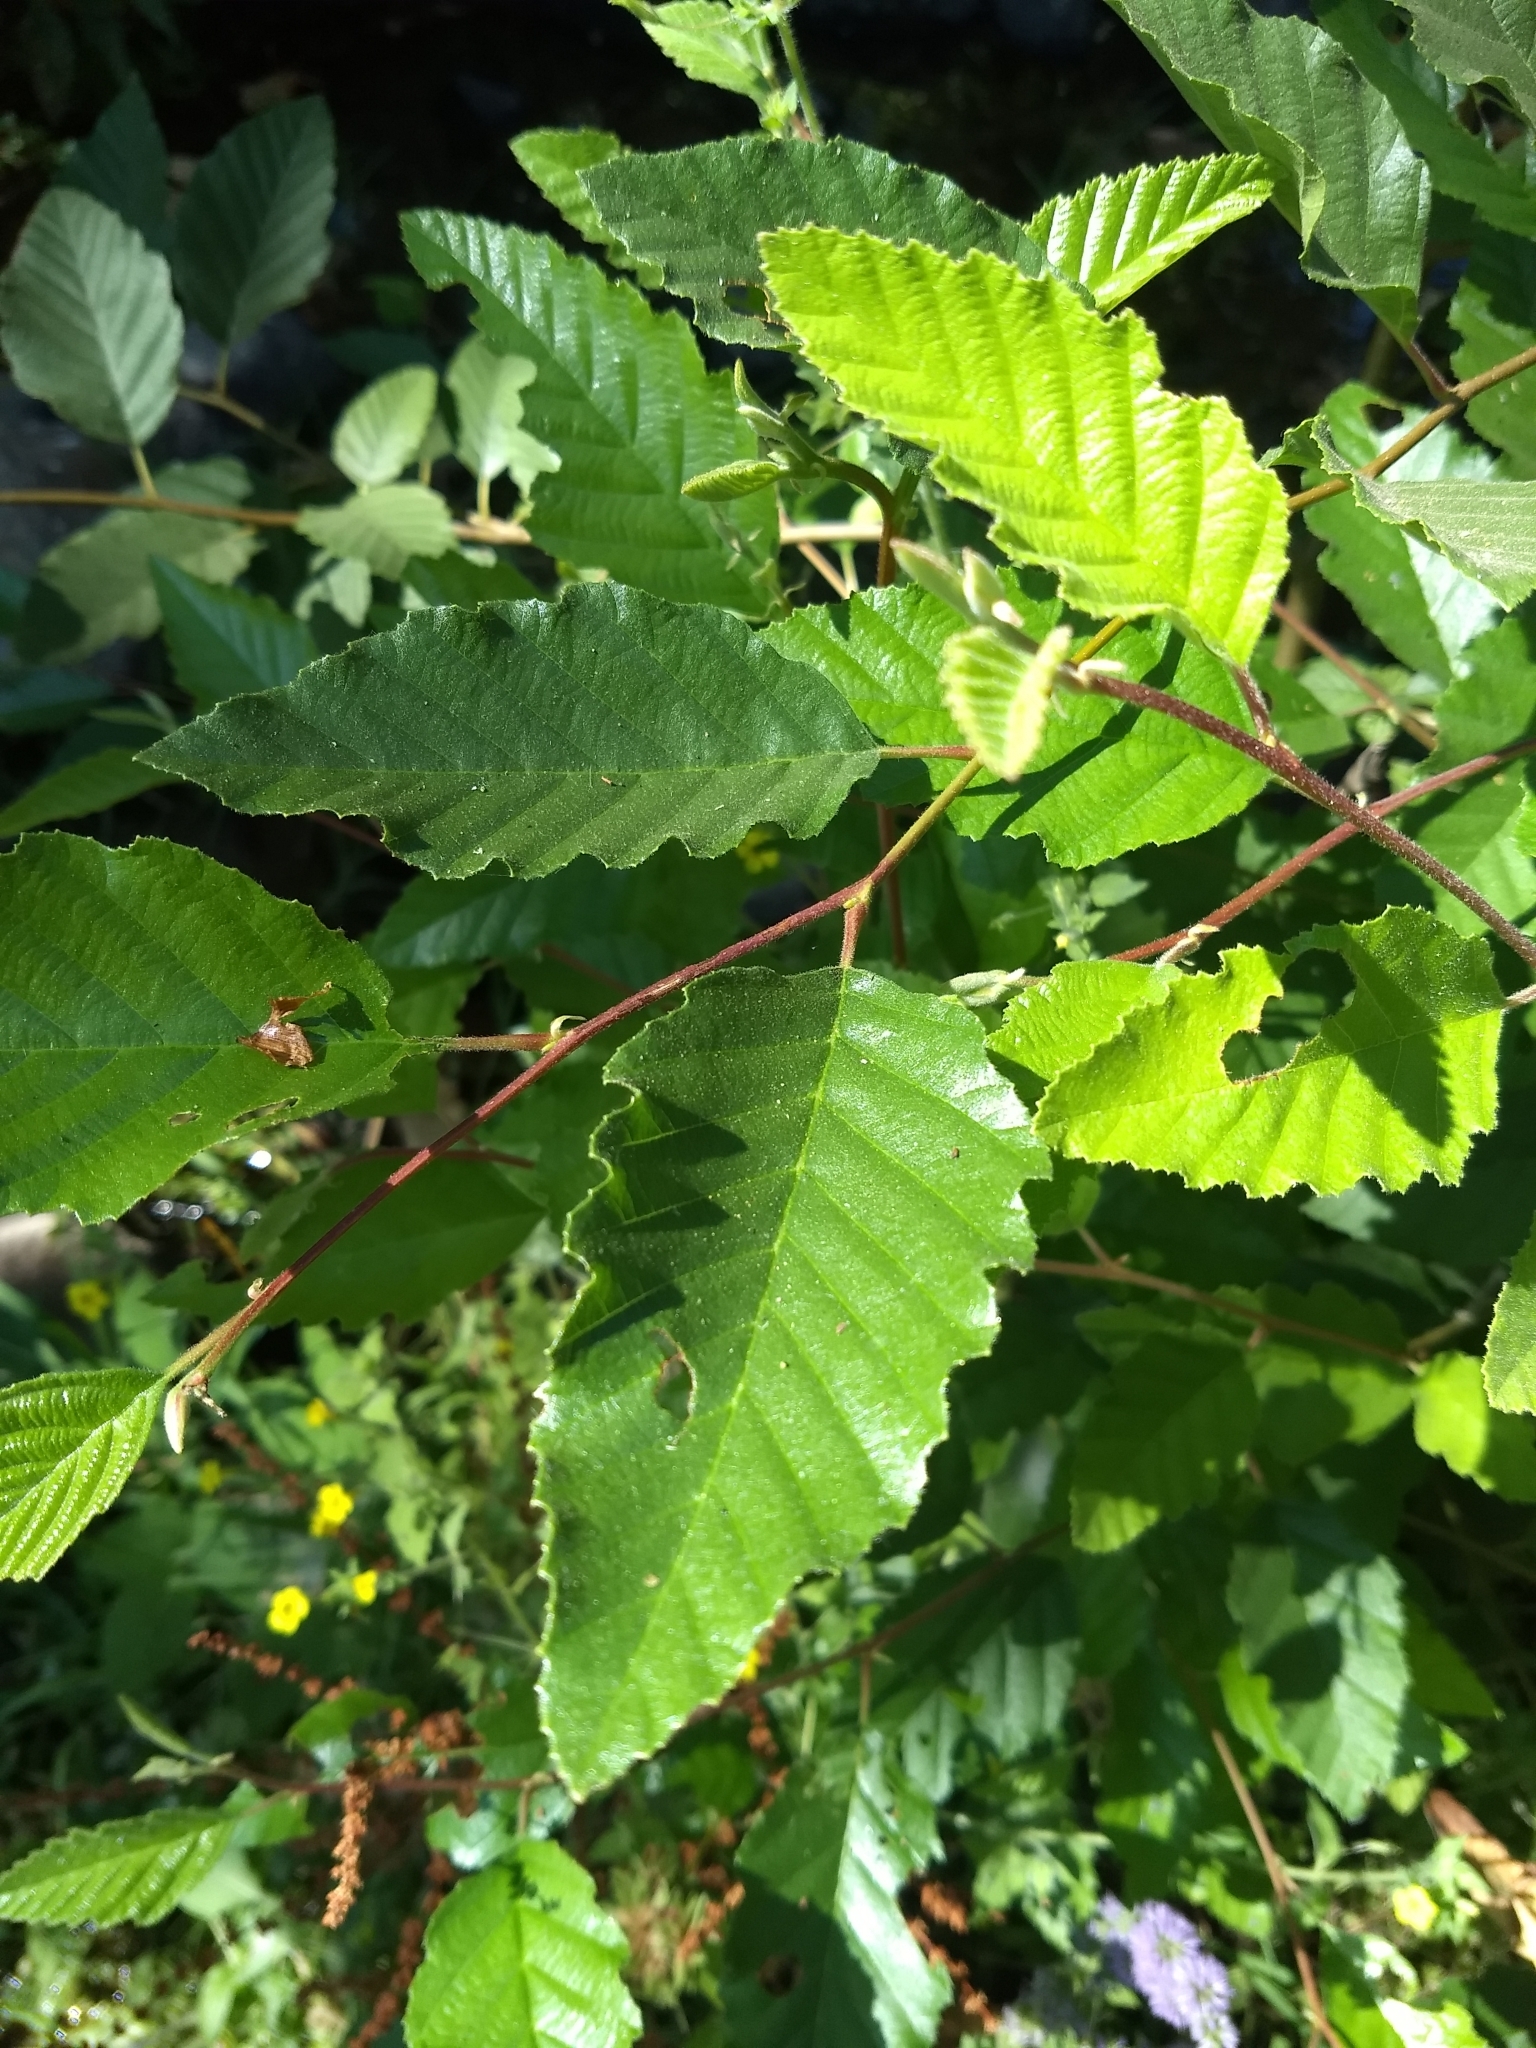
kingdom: Plantae
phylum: Tracheophyta
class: Magnoliopsida
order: Fagales
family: Betulaceae
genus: Alnus
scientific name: Alnus rhombifolia
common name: California alder
